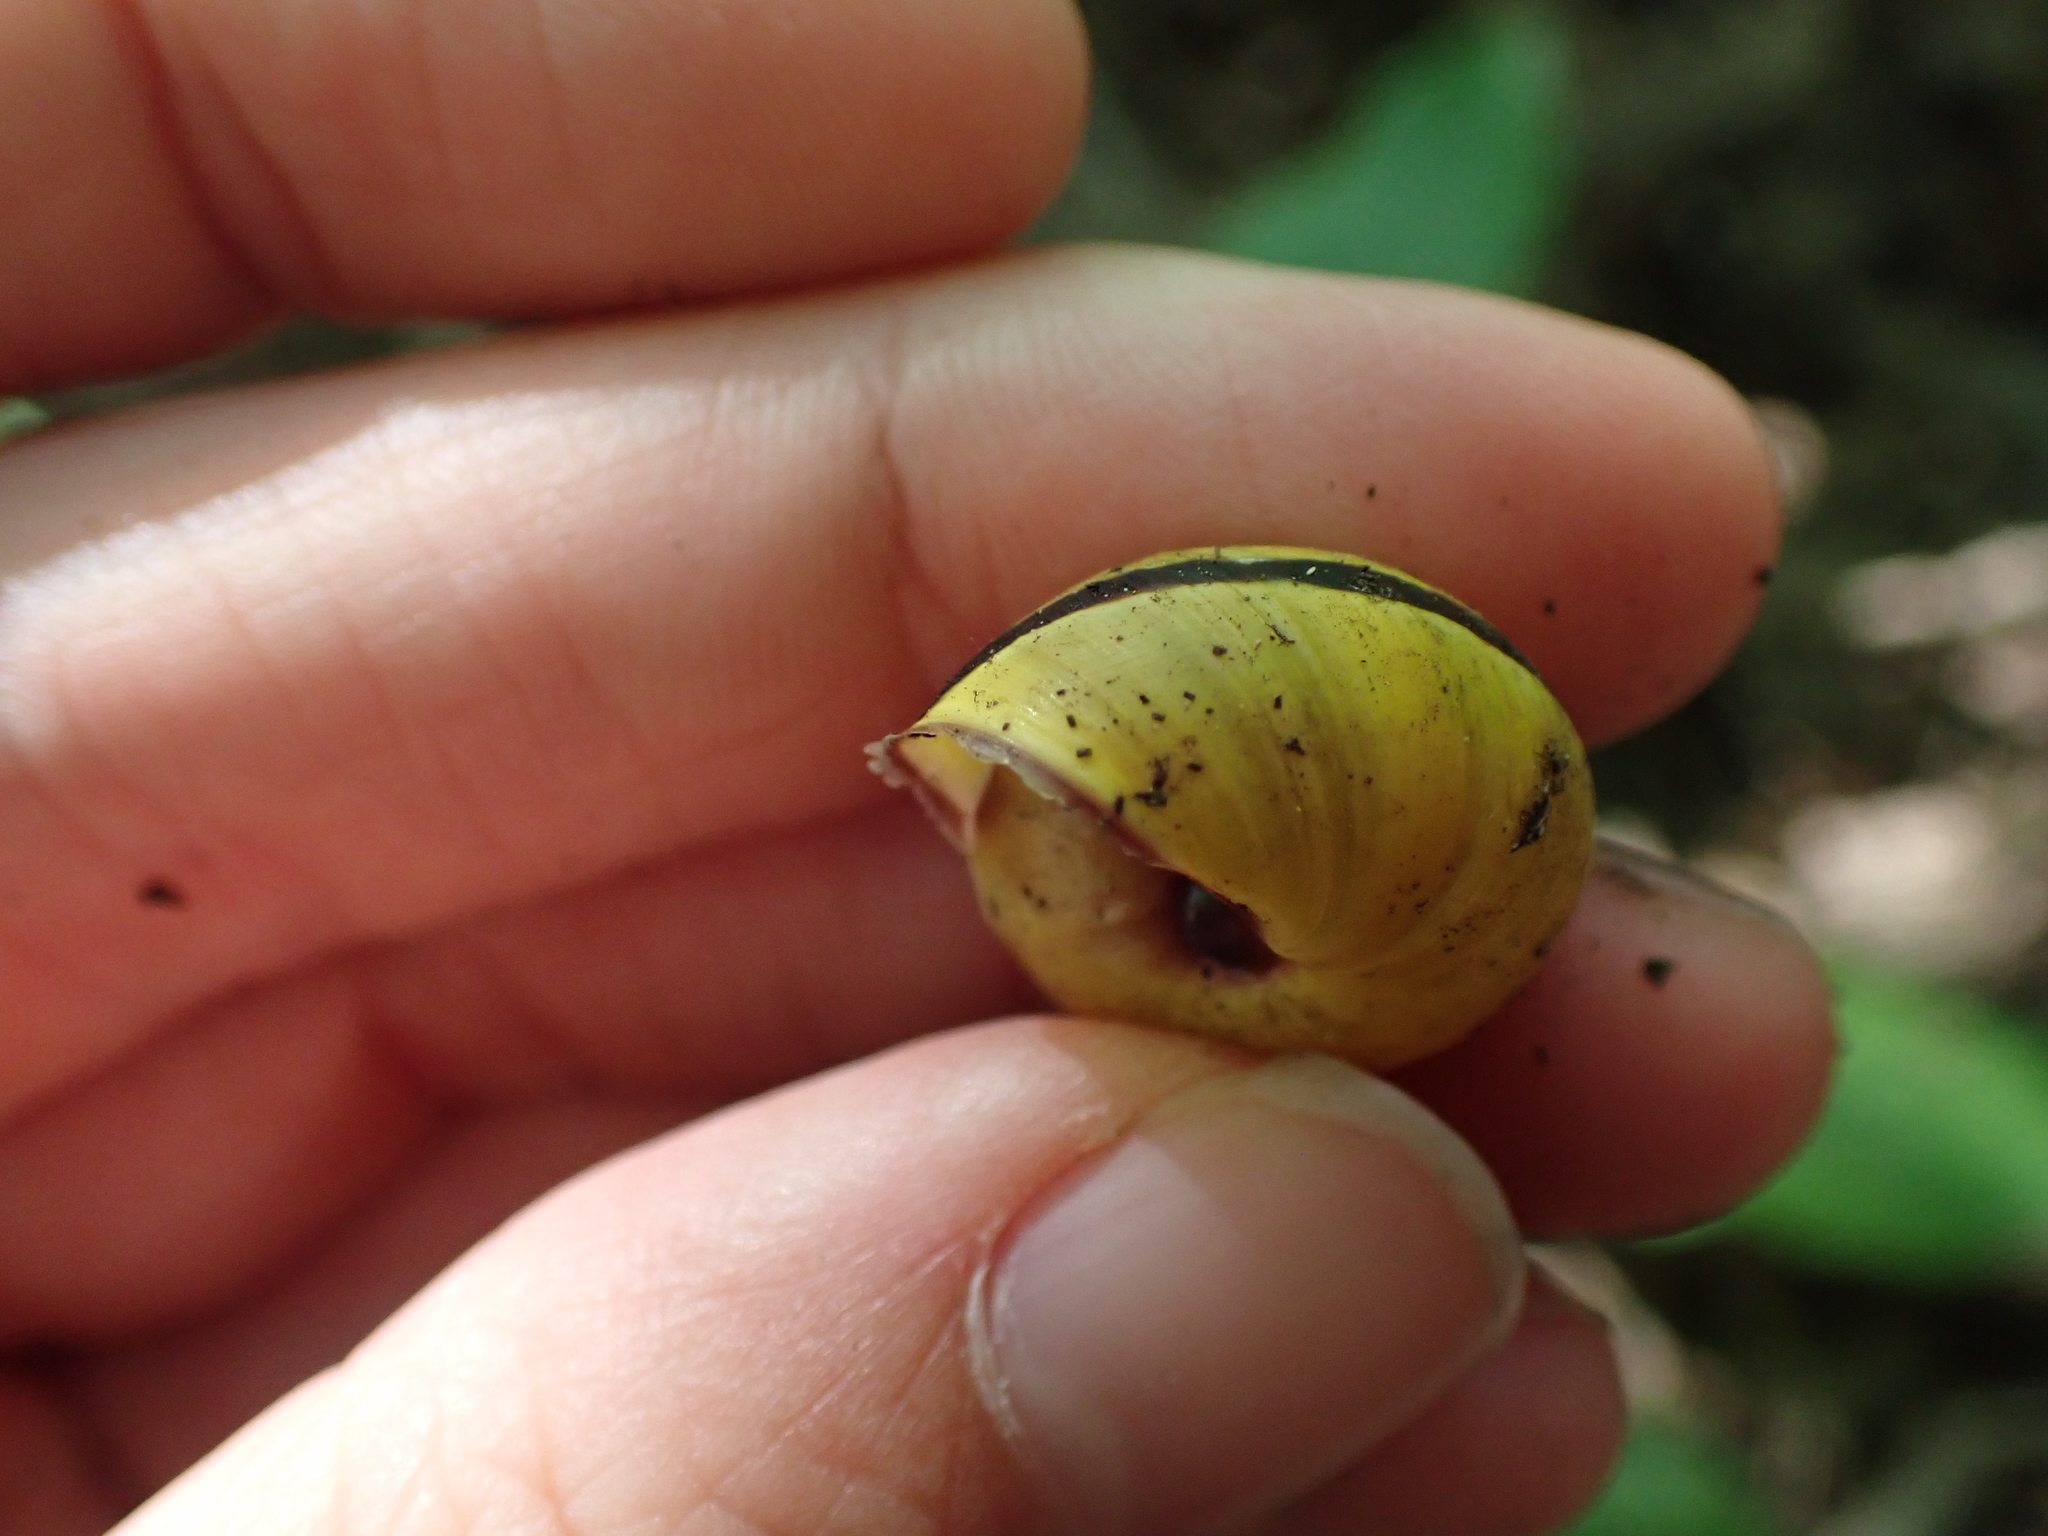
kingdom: Animalia
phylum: Mollusca
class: Gastropoda
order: Stylommatophora
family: Helicidae
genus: Cepaea
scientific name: Cepaea nemoralis
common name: Grovesnail
